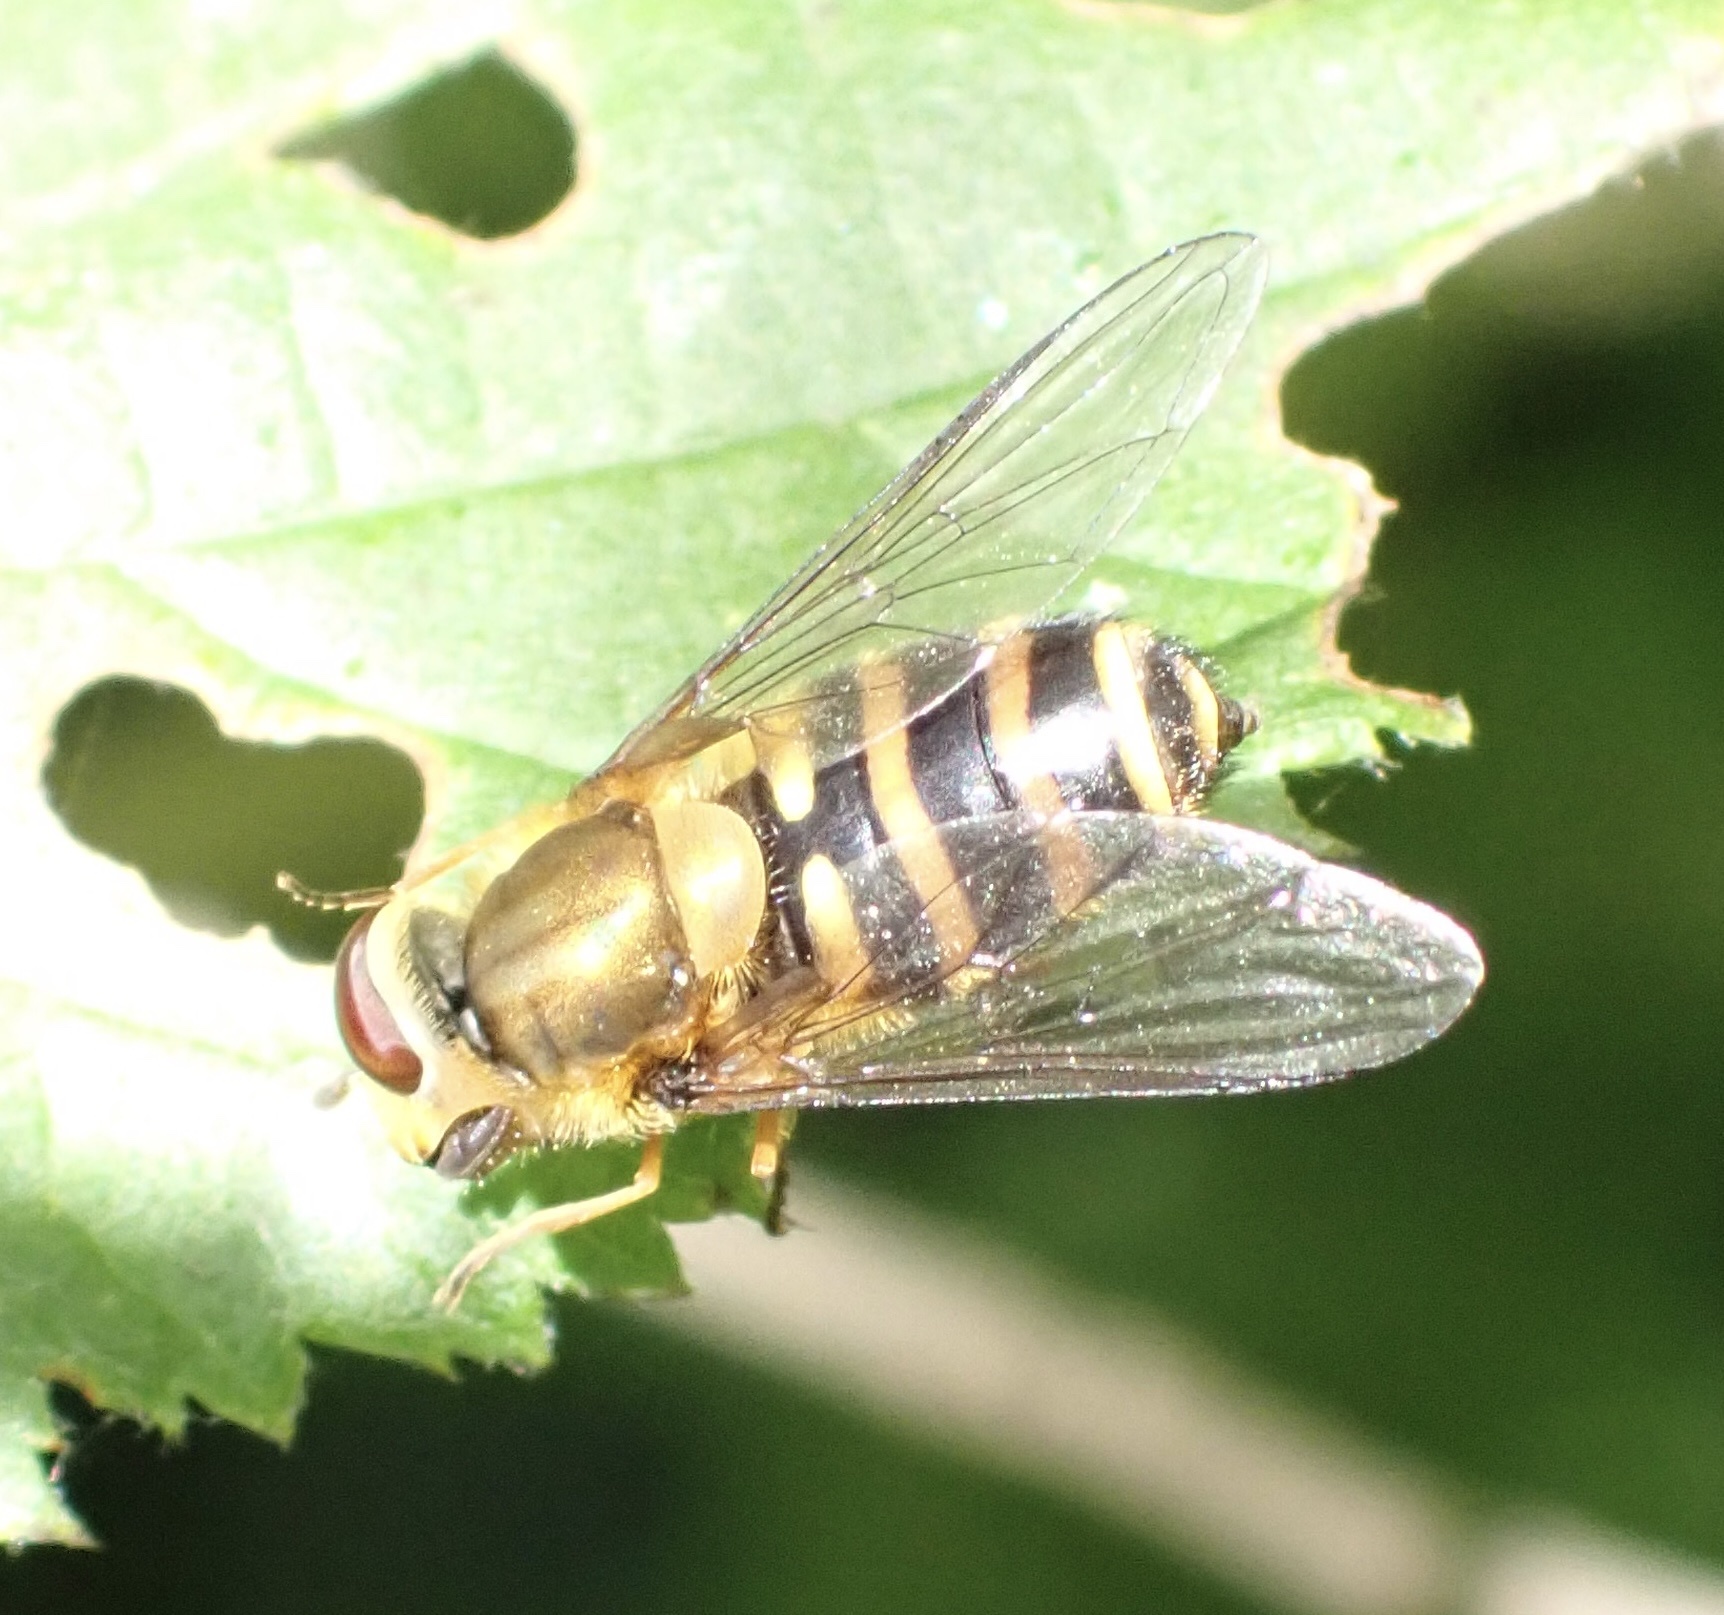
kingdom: Animalia
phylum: Arthropoda
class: Insecta
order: Diptera
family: Syrphidae
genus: Syrphus
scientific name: Syrphus
